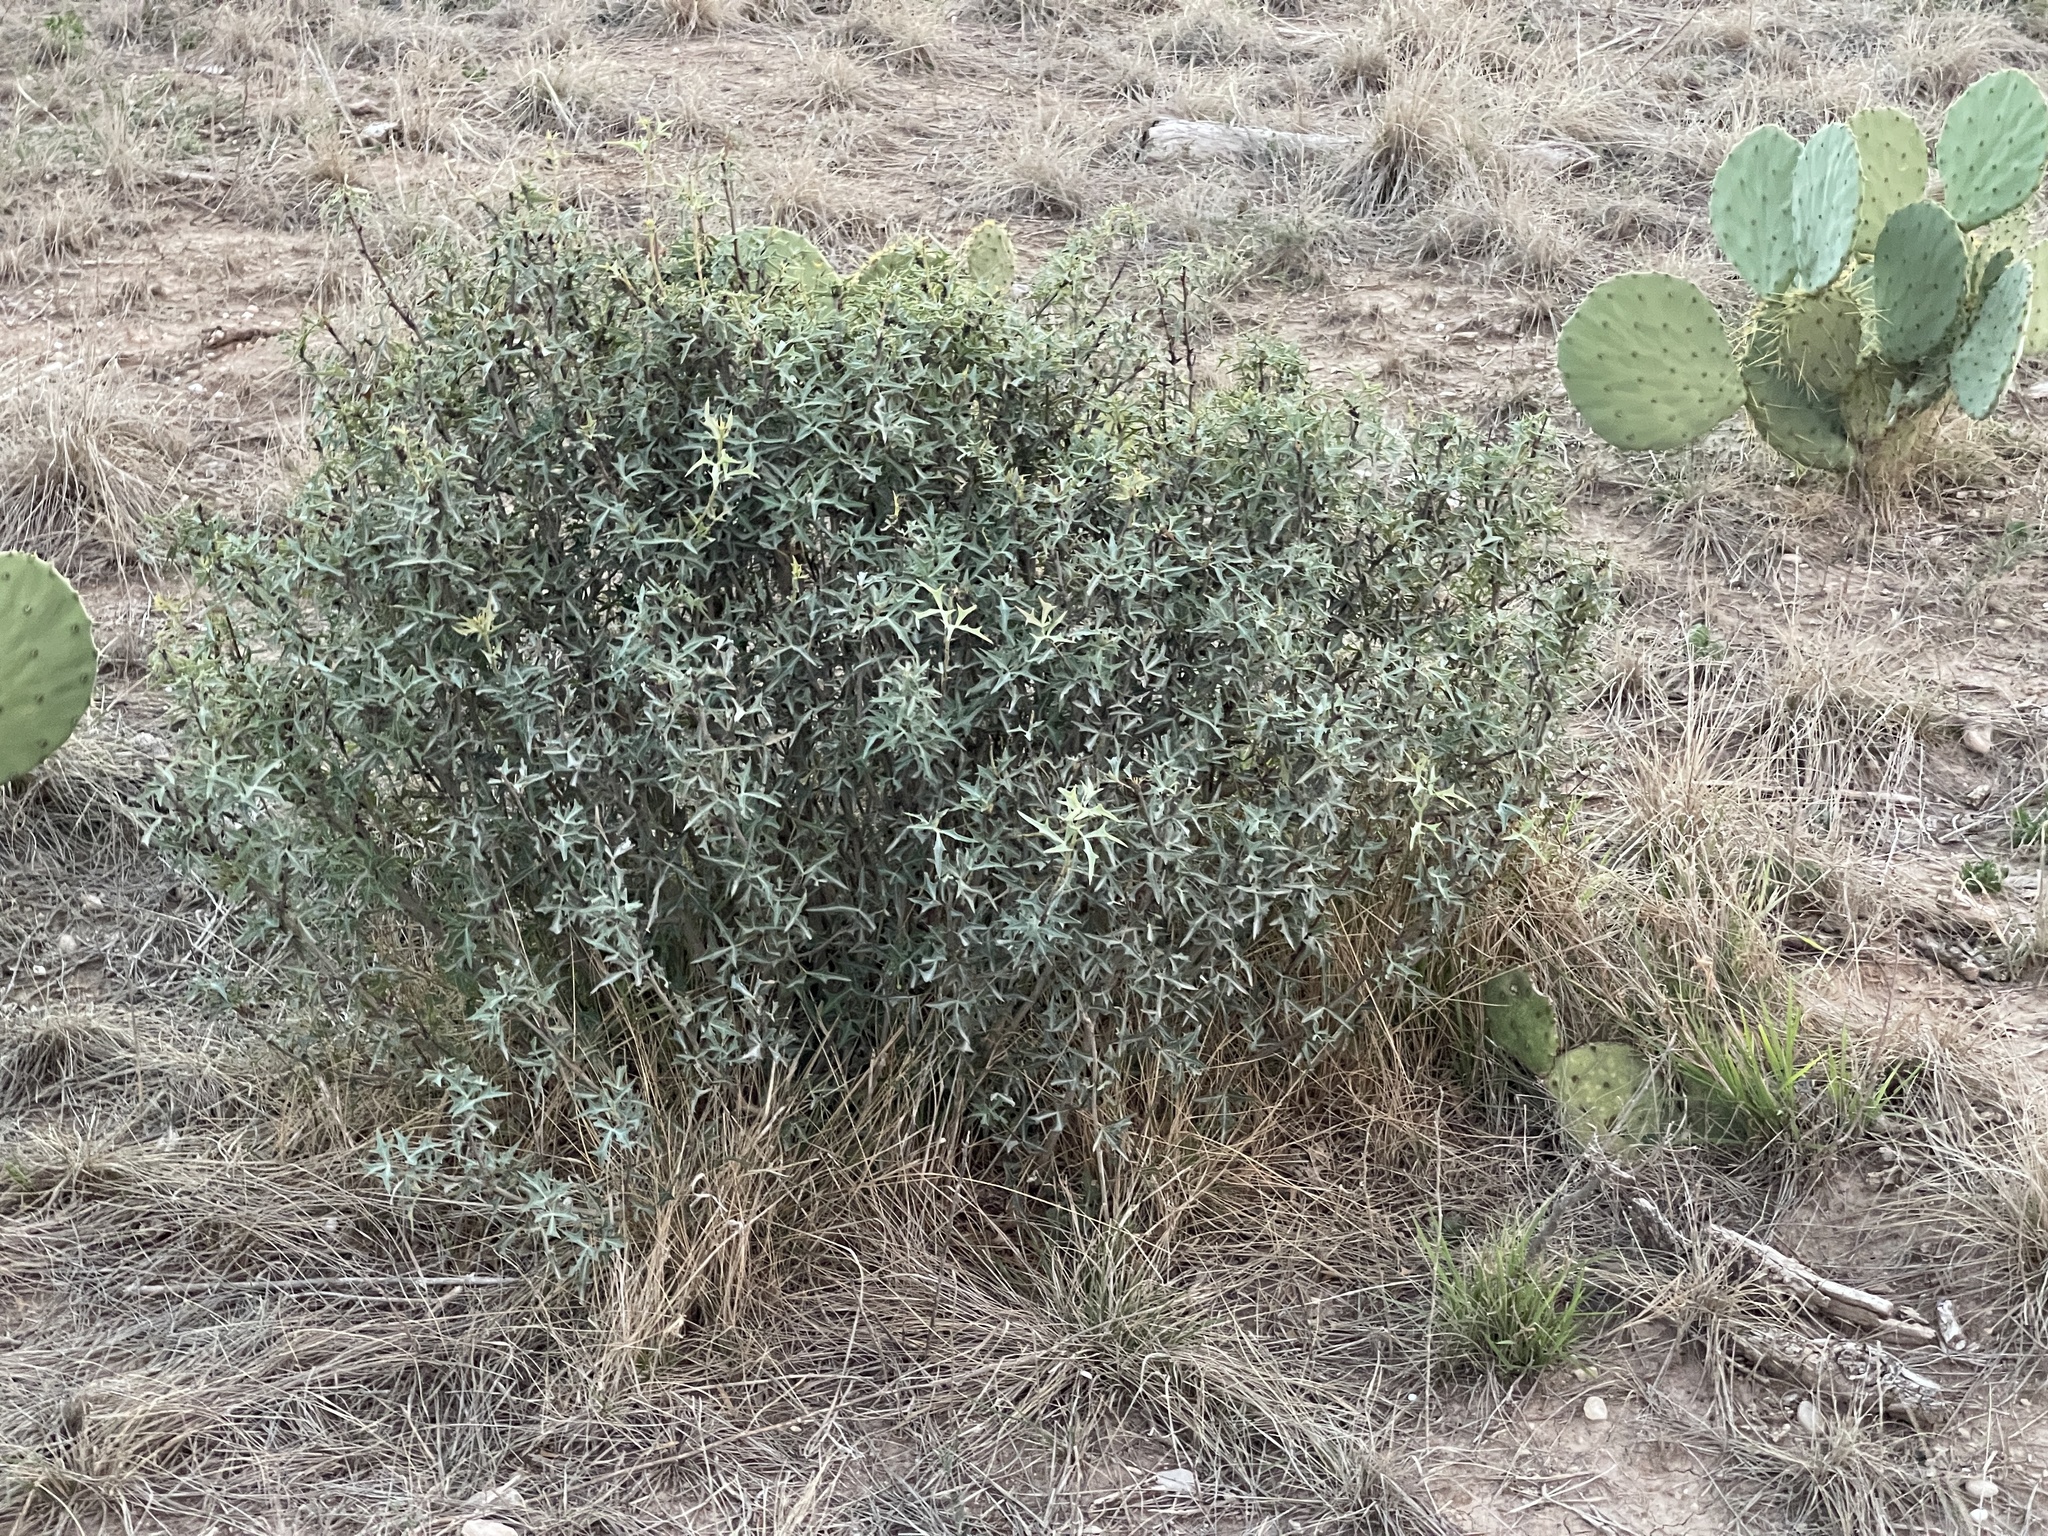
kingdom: Plantae
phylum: Tracheophyta
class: Magnoliopsida
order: Ranunculales
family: Berberidaceae
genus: Alloberberis
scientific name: Alloberberis trifoliolata
